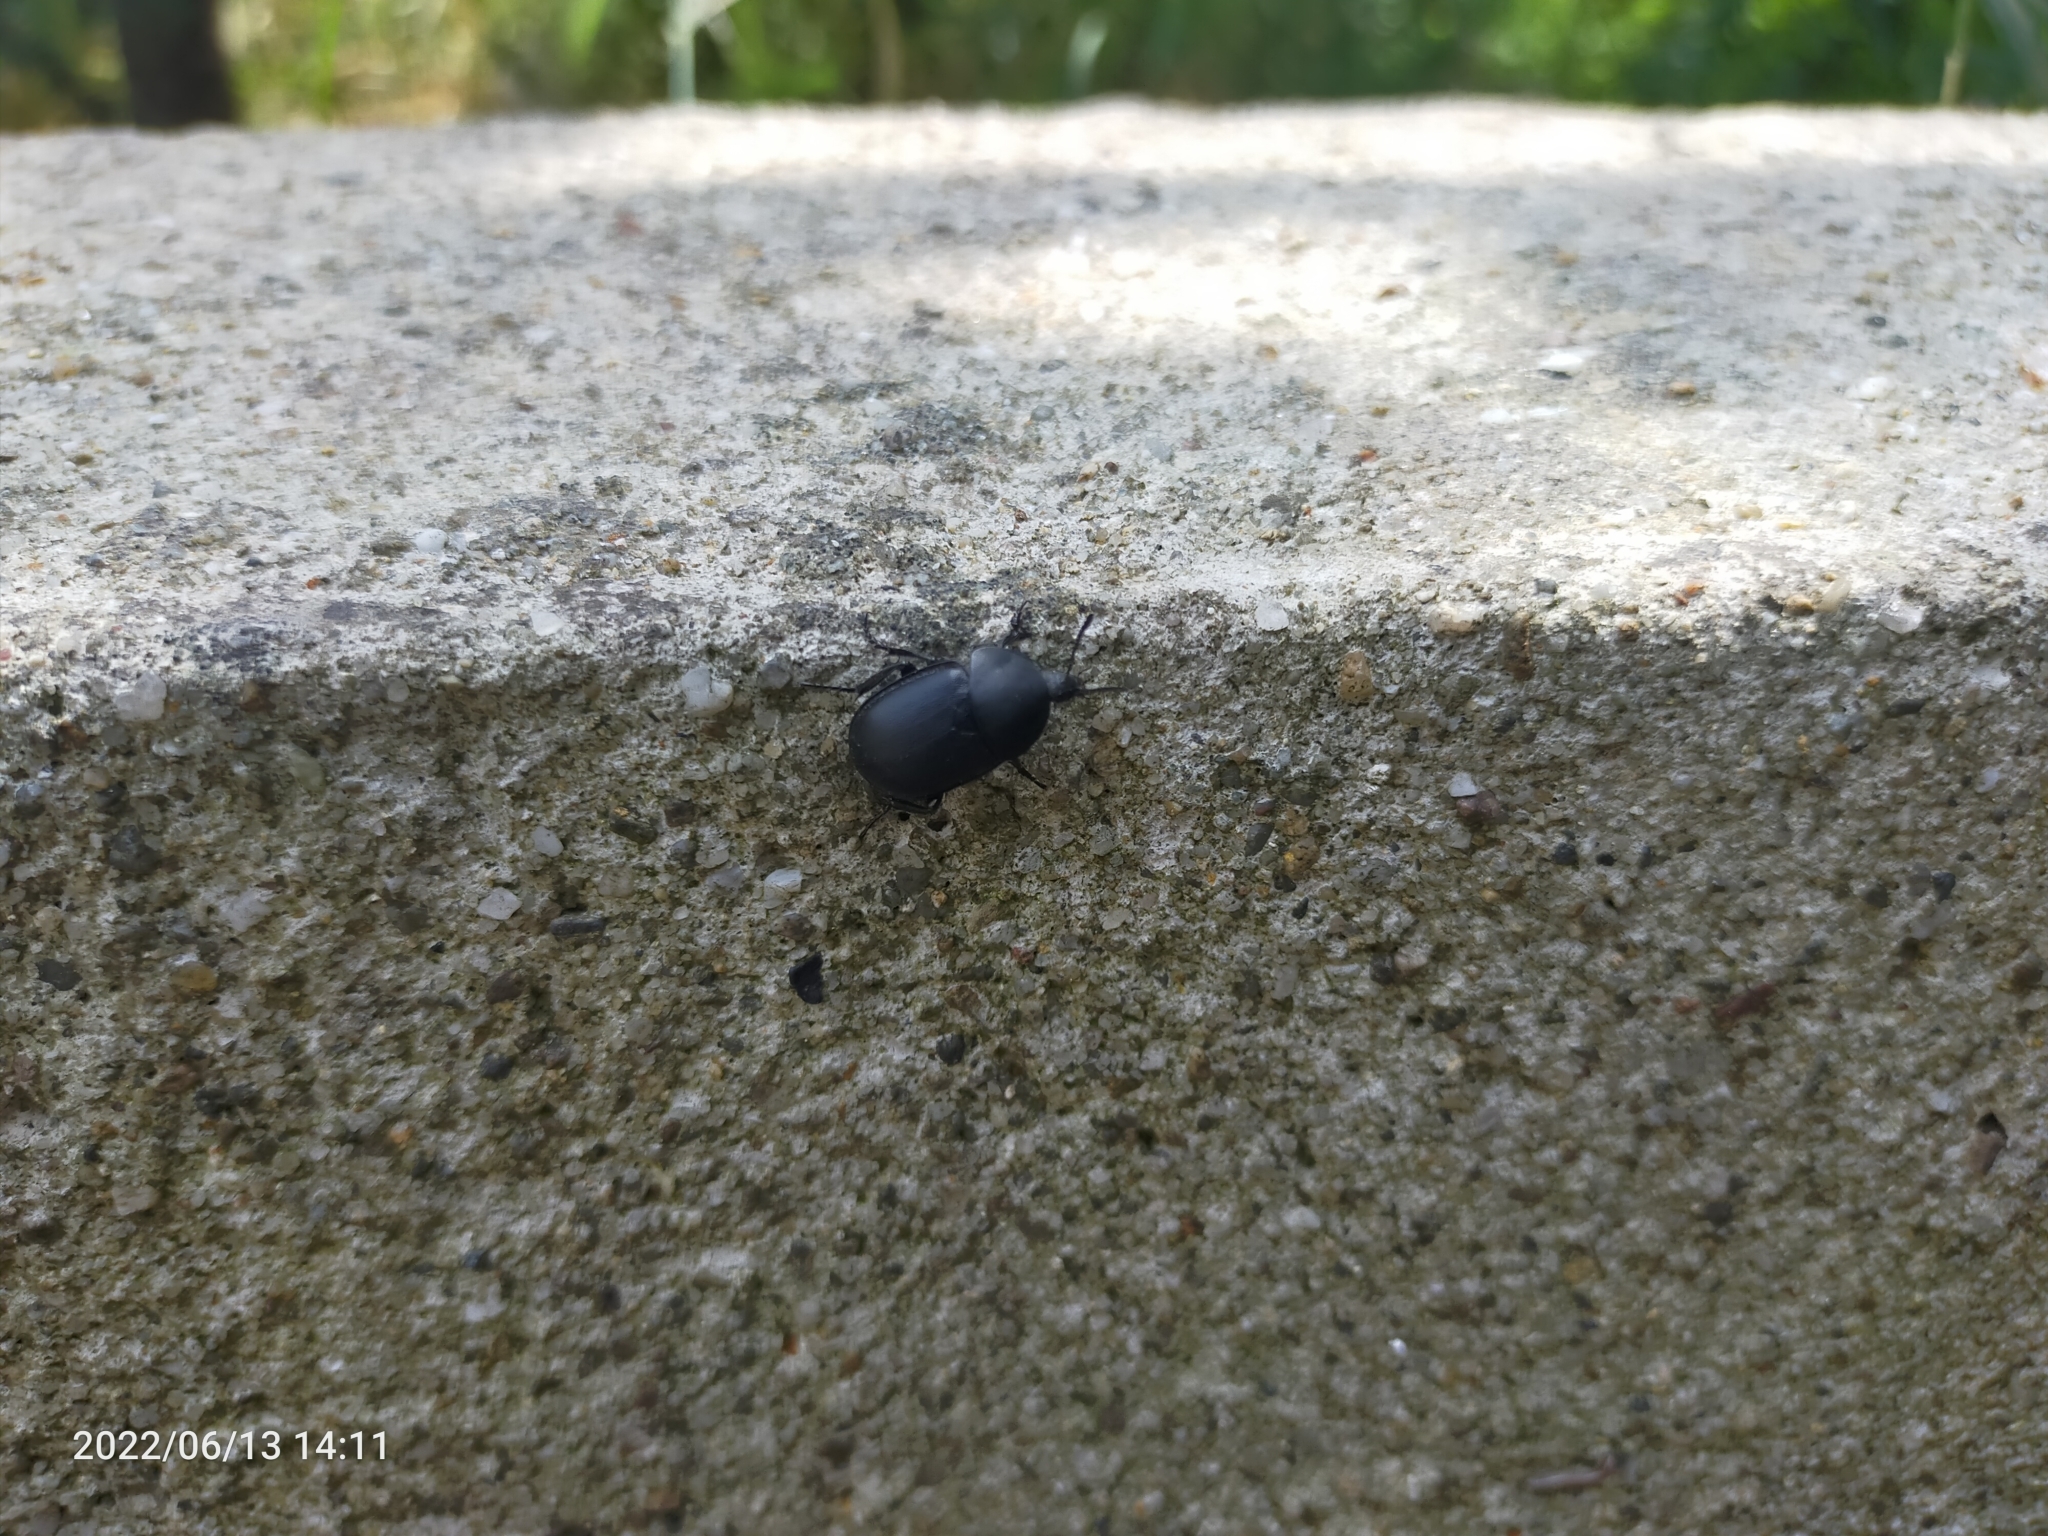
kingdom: Animalia
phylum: Arthropoda
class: Insecta
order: Coleoptera
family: Staphylinidae
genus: Silpha
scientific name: Silpha laevigata
